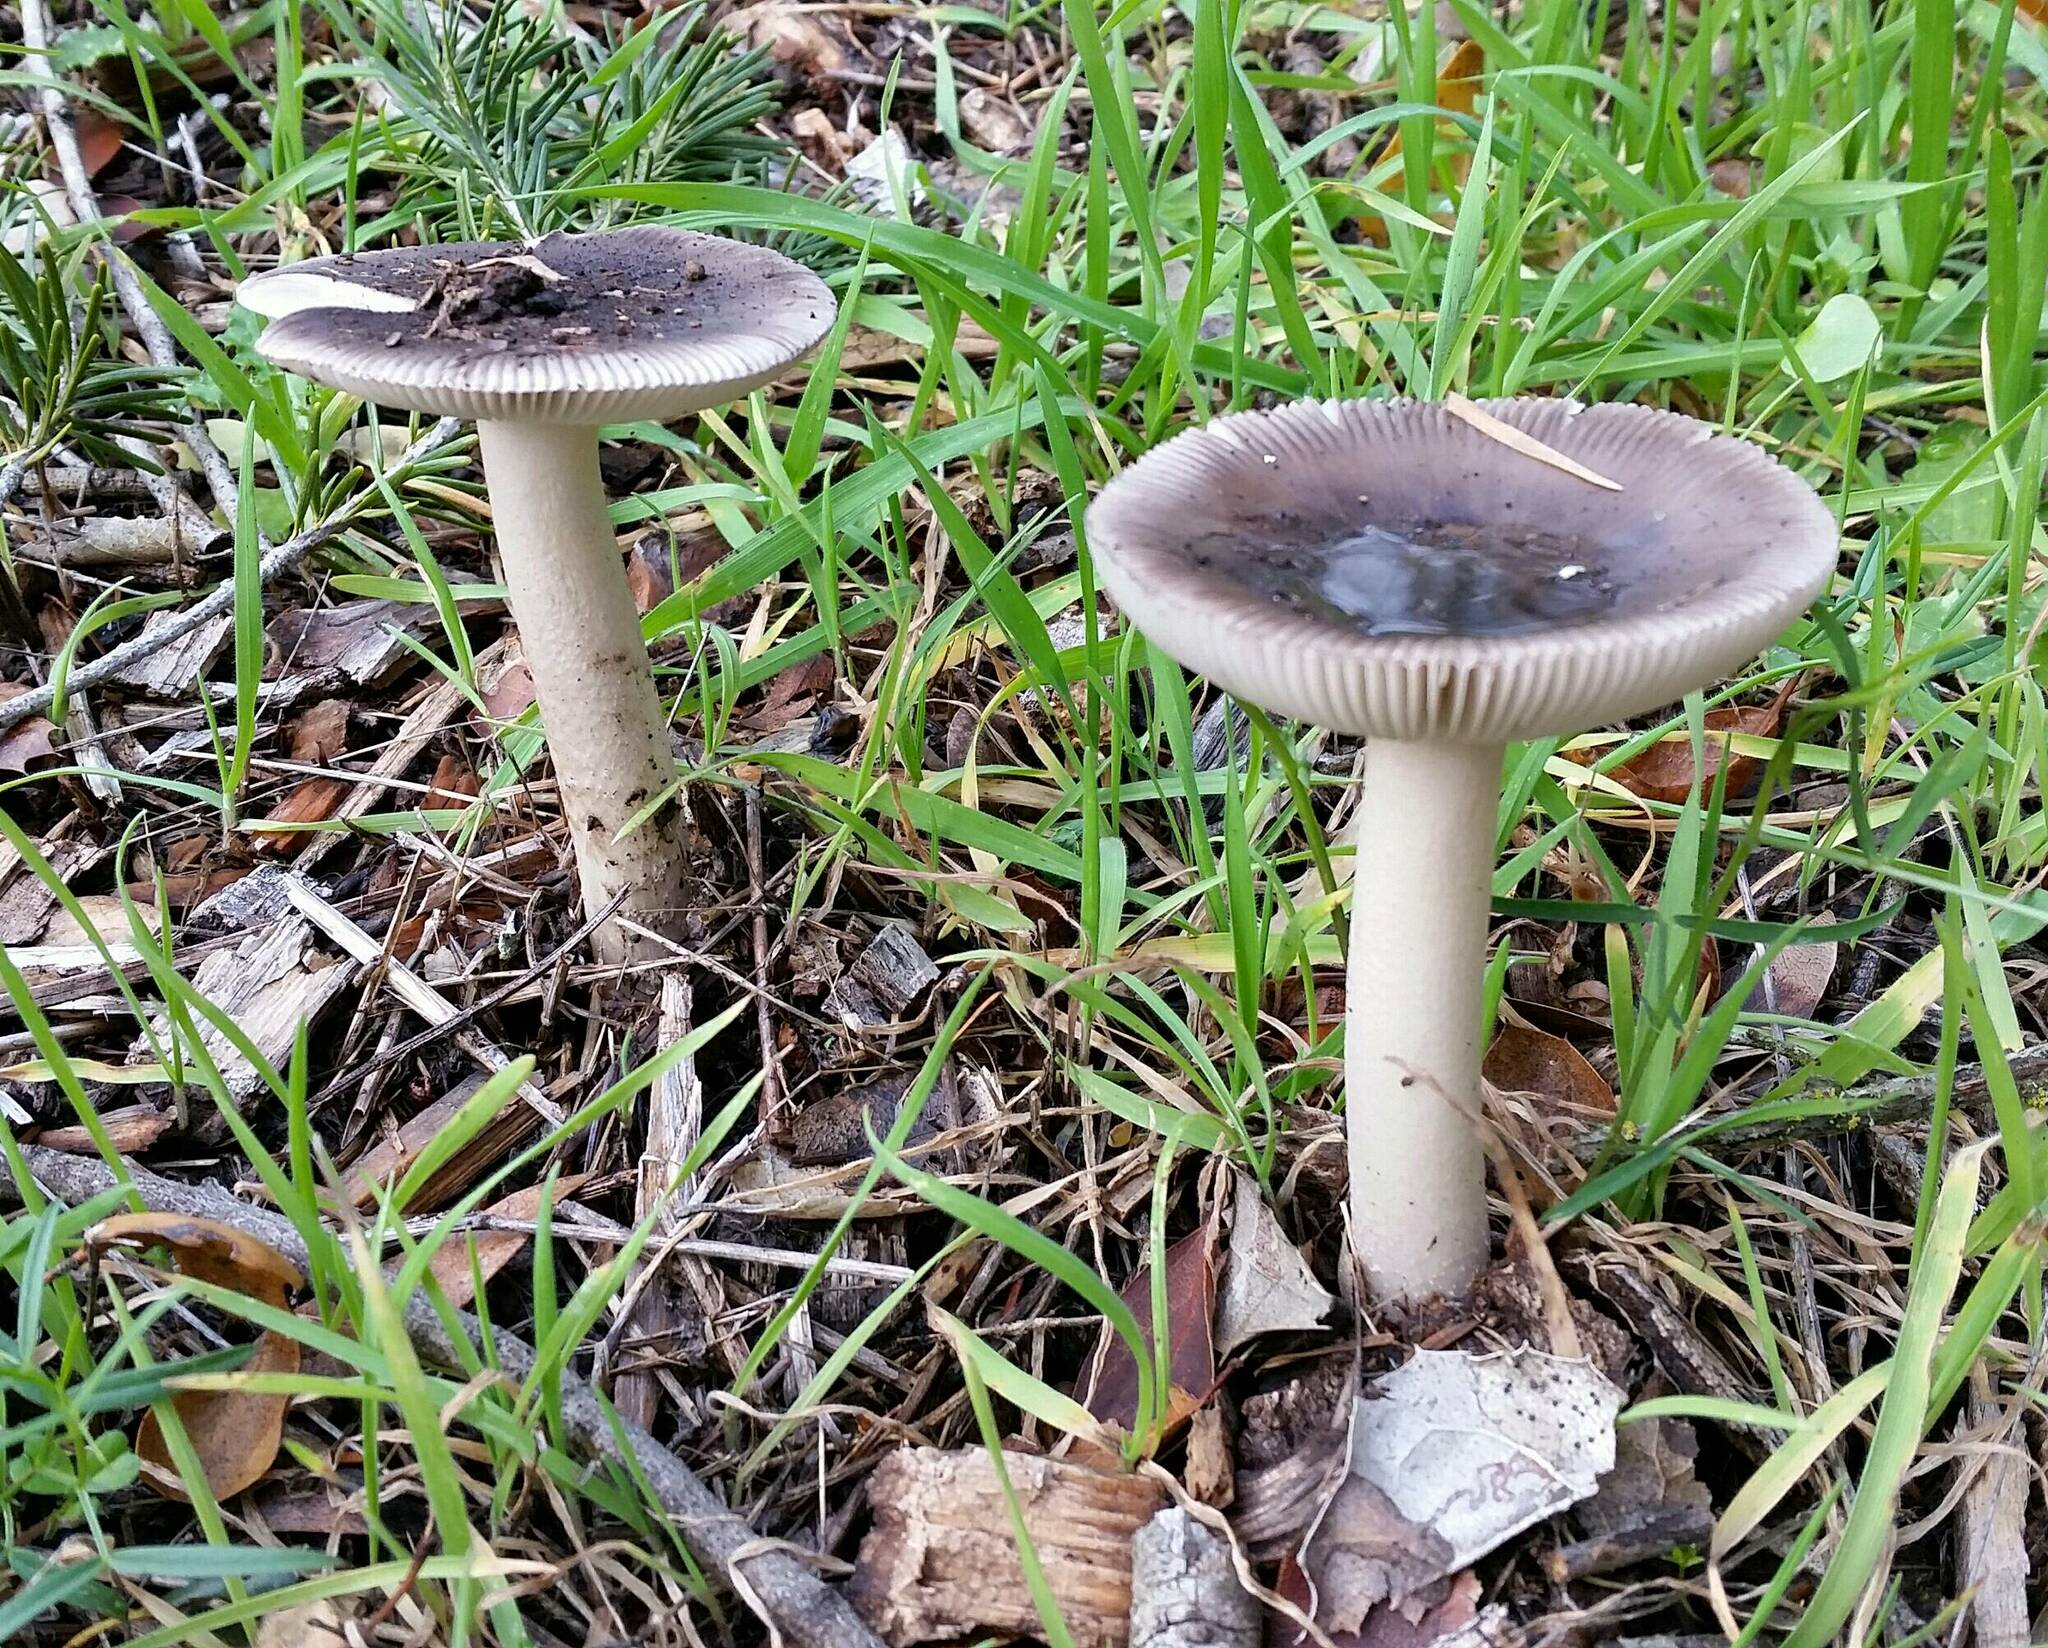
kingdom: Fungi
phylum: Basidiomycota
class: Agaricomycetes
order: Agaricales
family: Amanitaceae
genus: Amanita
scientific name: Amanita constricta
